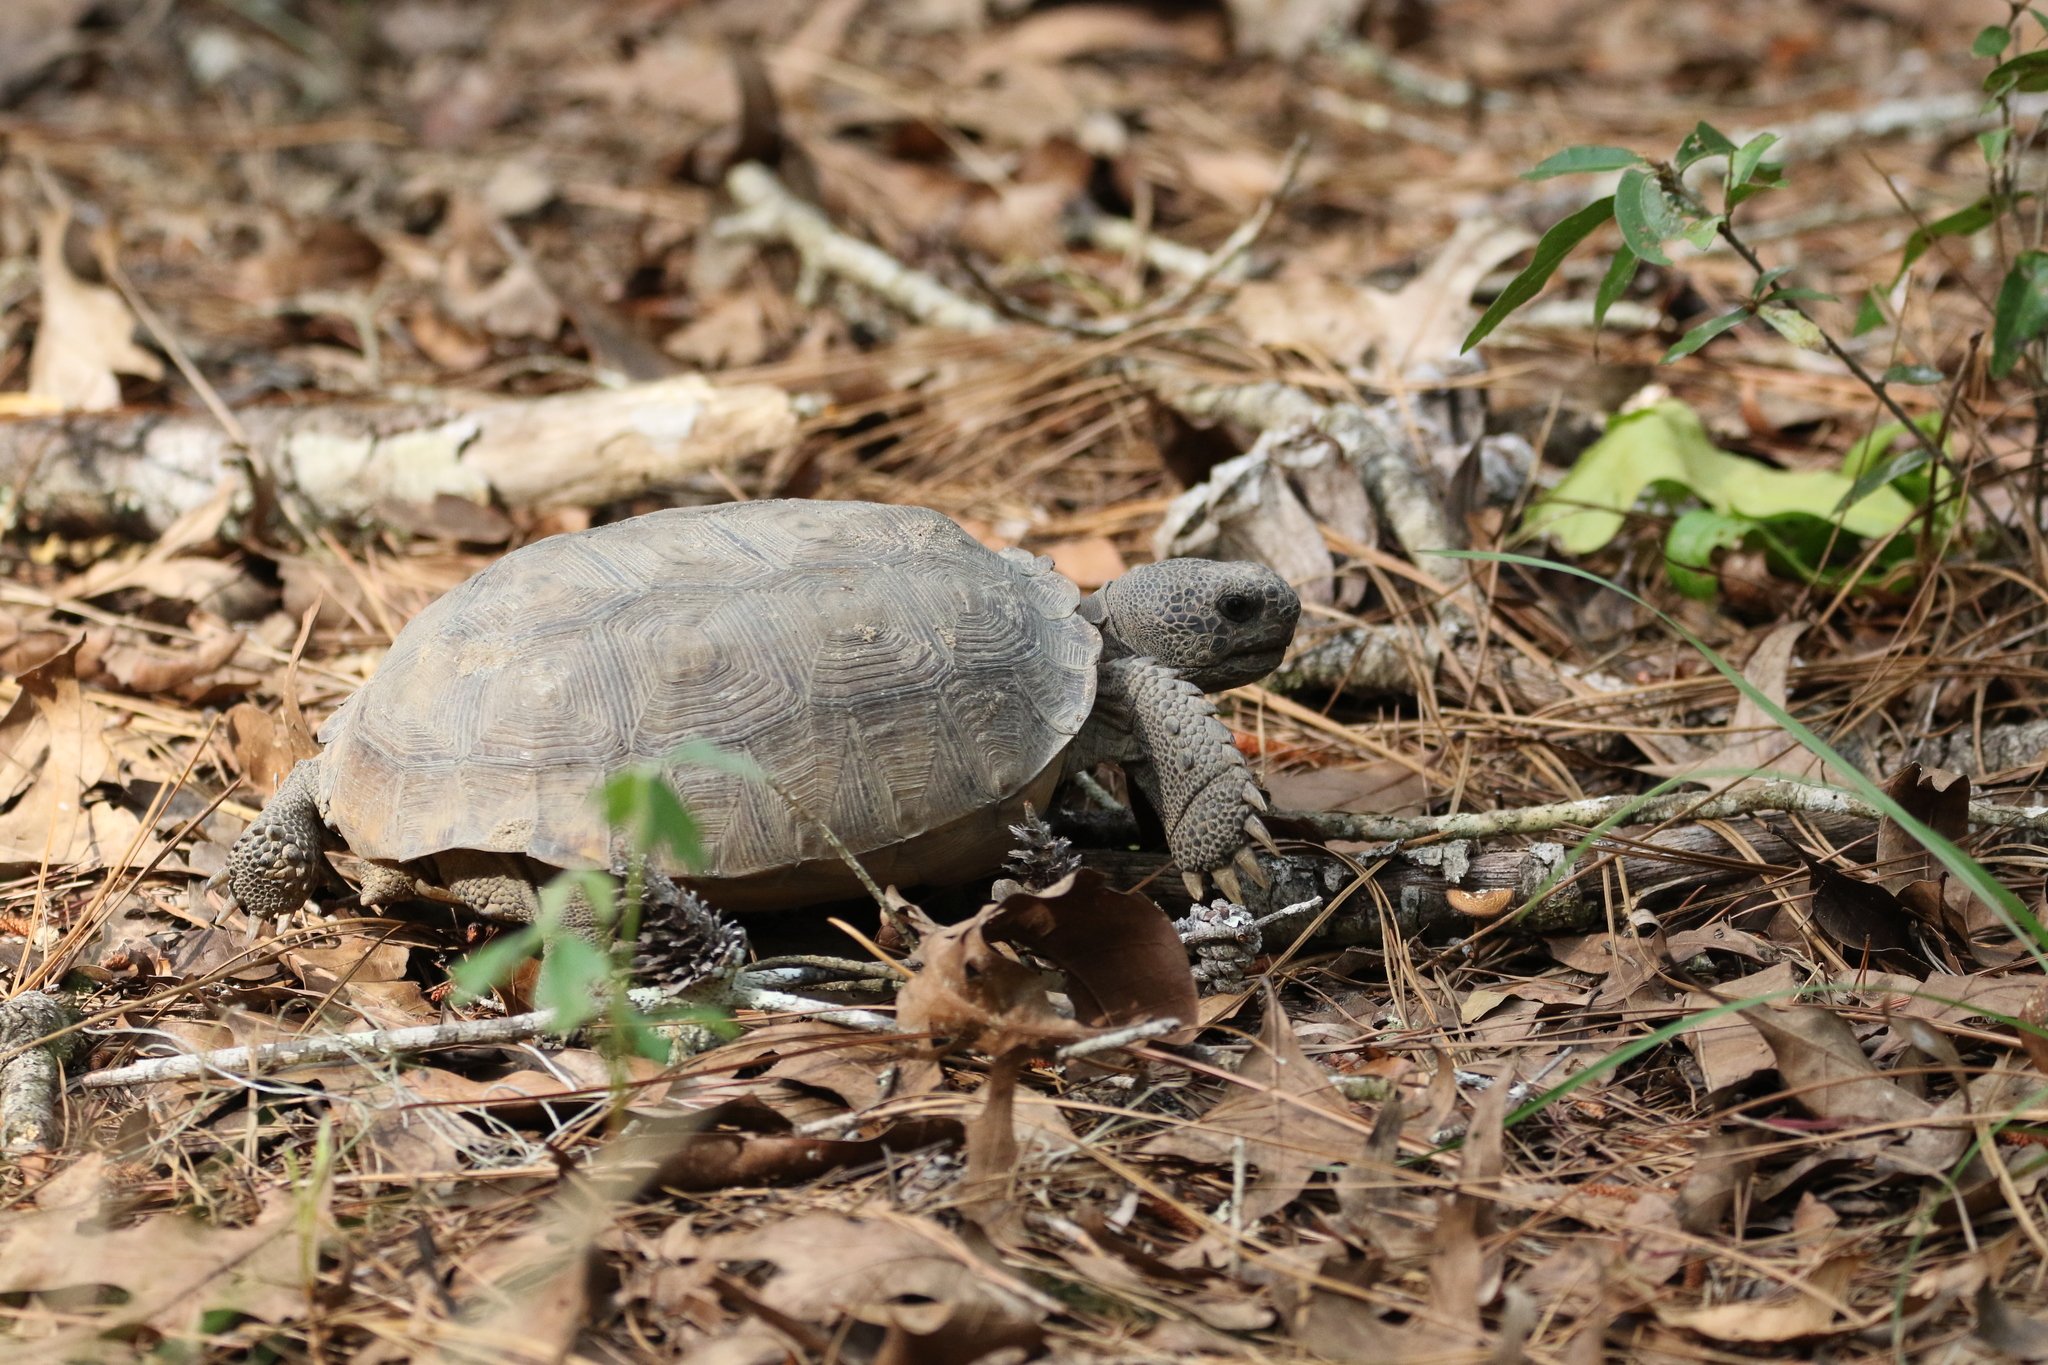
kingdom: Animalia
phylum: Chordata
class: Testudines
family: Testudinidae
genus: Gopherus
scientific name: Gopherus polyphemus
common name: Florida gopher tortoise
